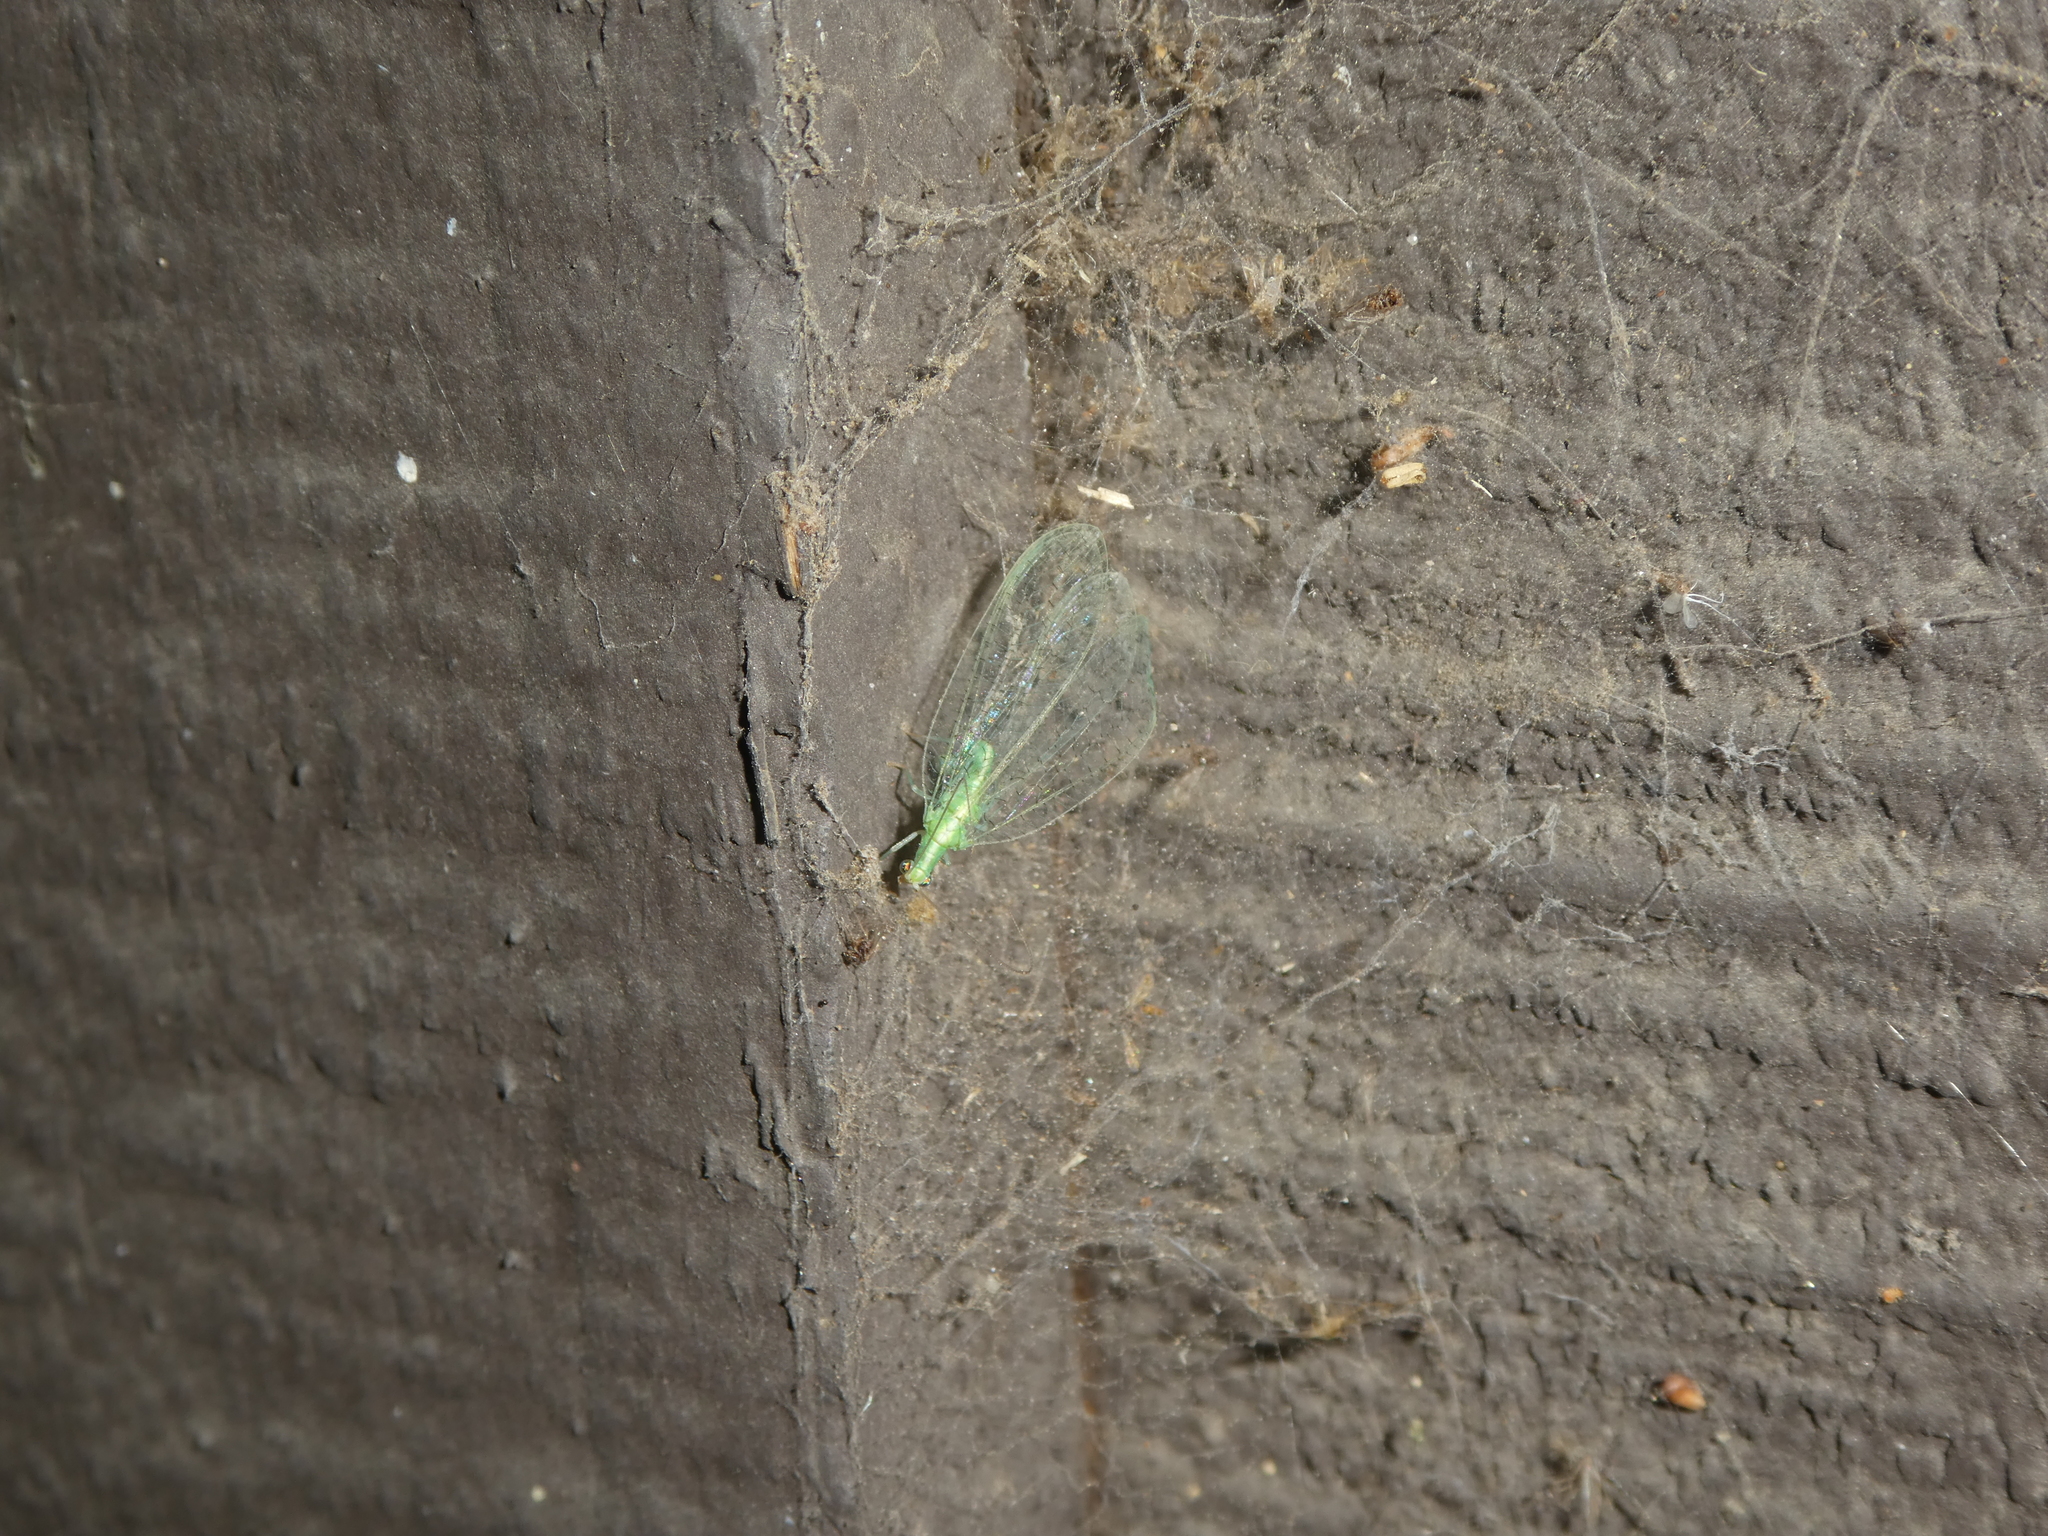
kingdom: Animalia
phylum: Arthropoda
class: Insecta
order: Neuroptera
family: Chrysopidae
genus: Chrysoperla
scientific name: Chrysoperla
